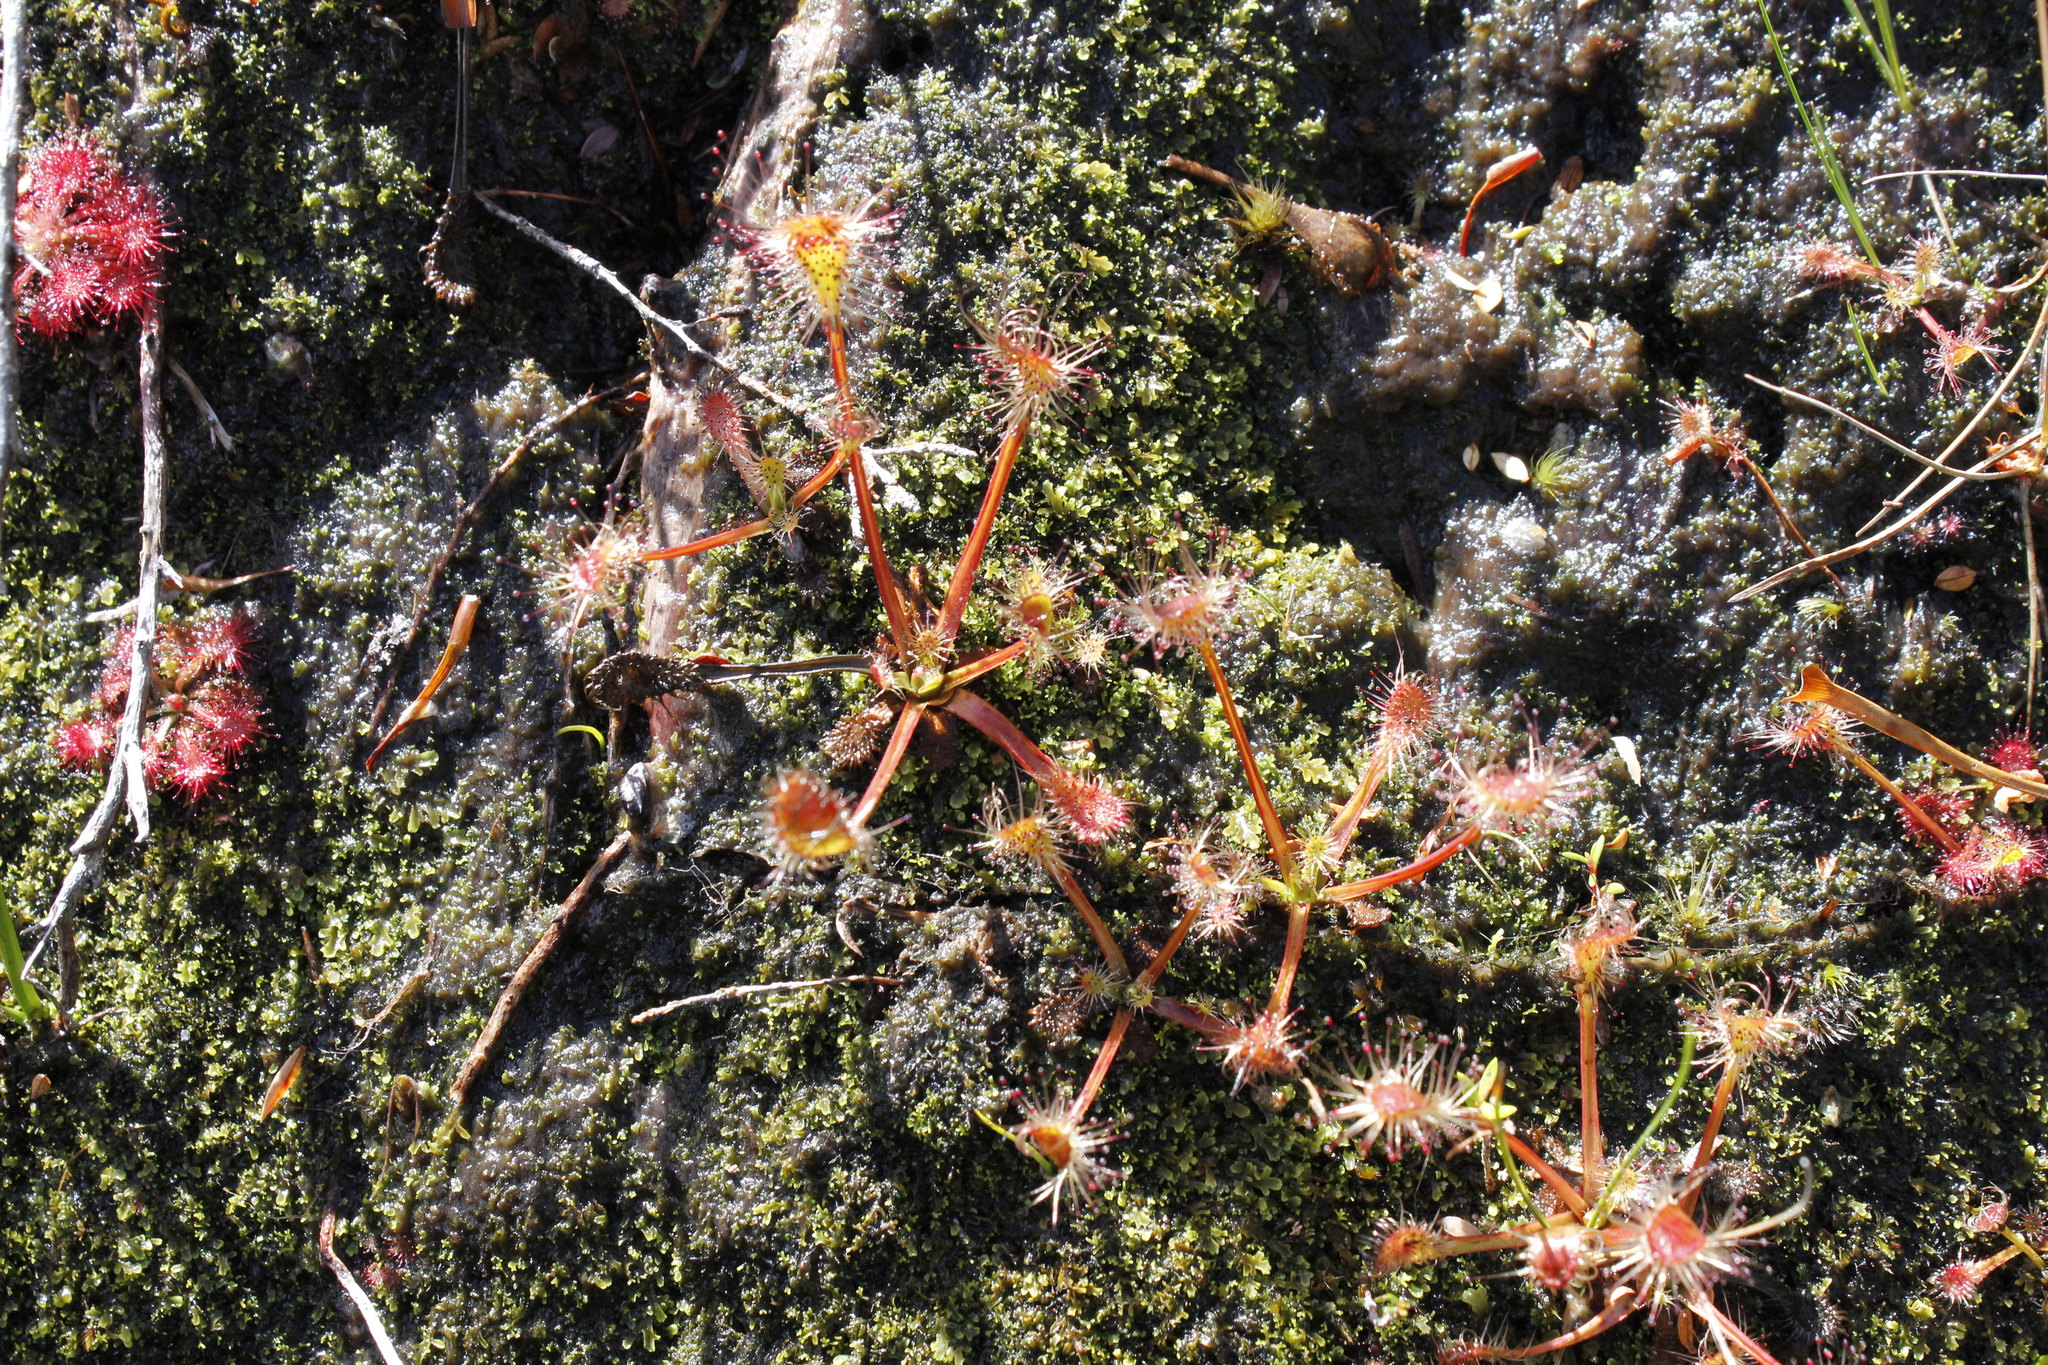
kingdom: Plantae
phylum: Tracheophyta
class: Magnoliopsida
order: Caryophyllales
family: Droseraceae
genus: Drosera
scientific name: Drosera stenopetala
